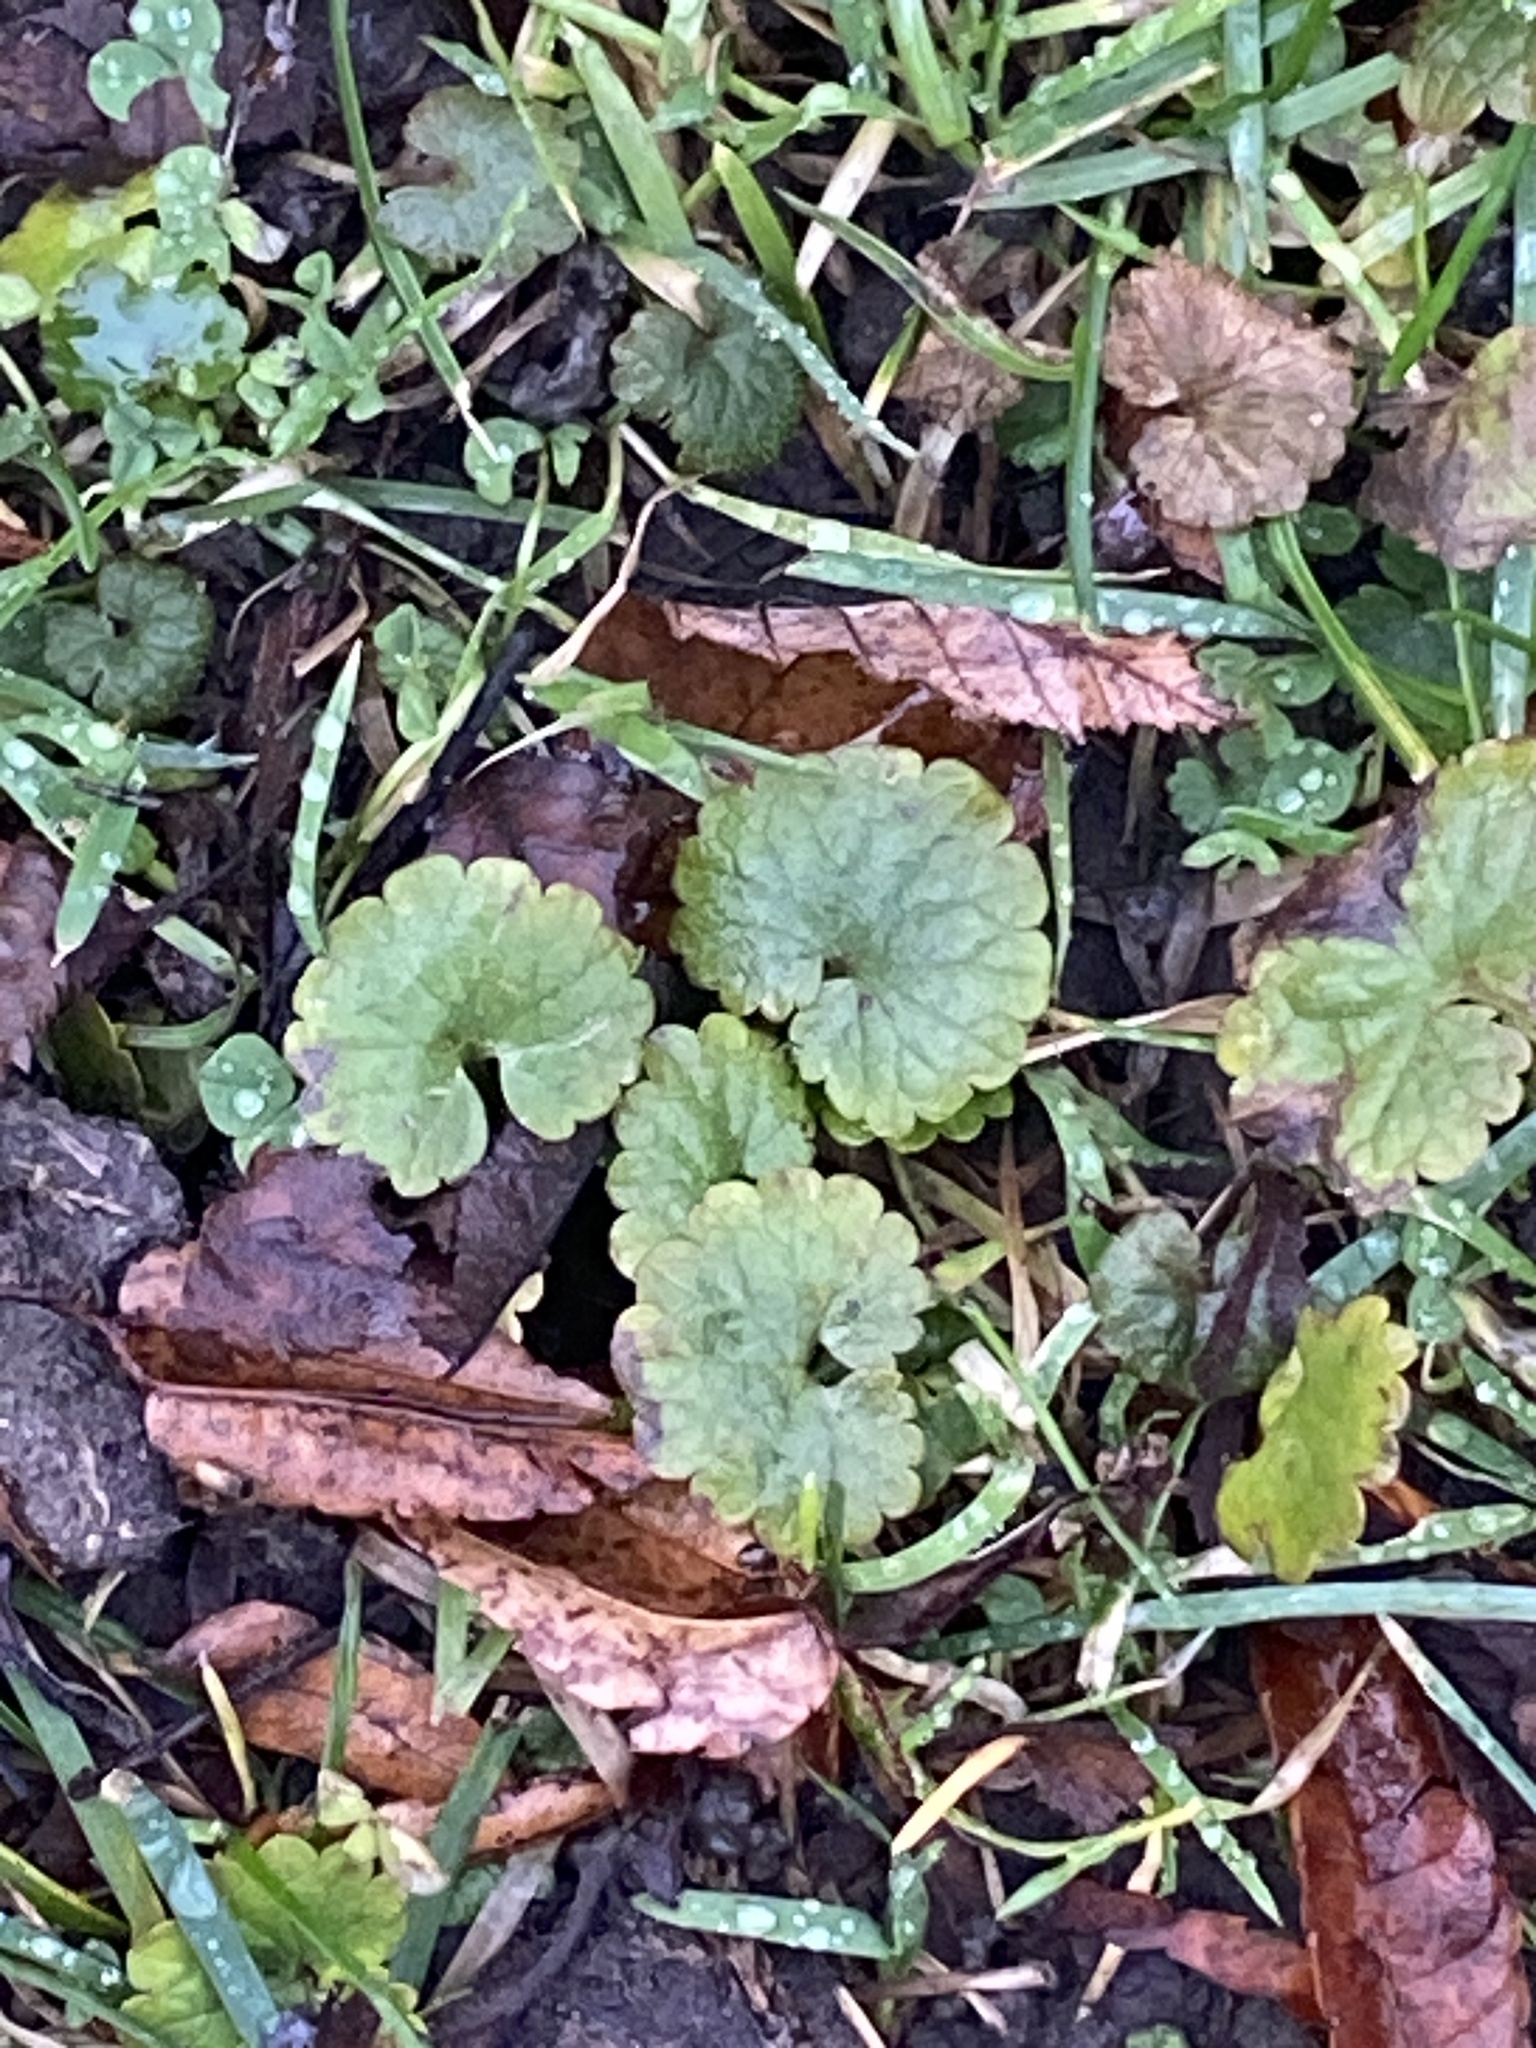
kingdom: Plantae
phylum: Tracheophyta
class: Magnoliopsida
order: Lamiales
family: Lamiaceae
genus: Glechoma
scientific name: Glechoma hederacea
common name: Ground ivy
